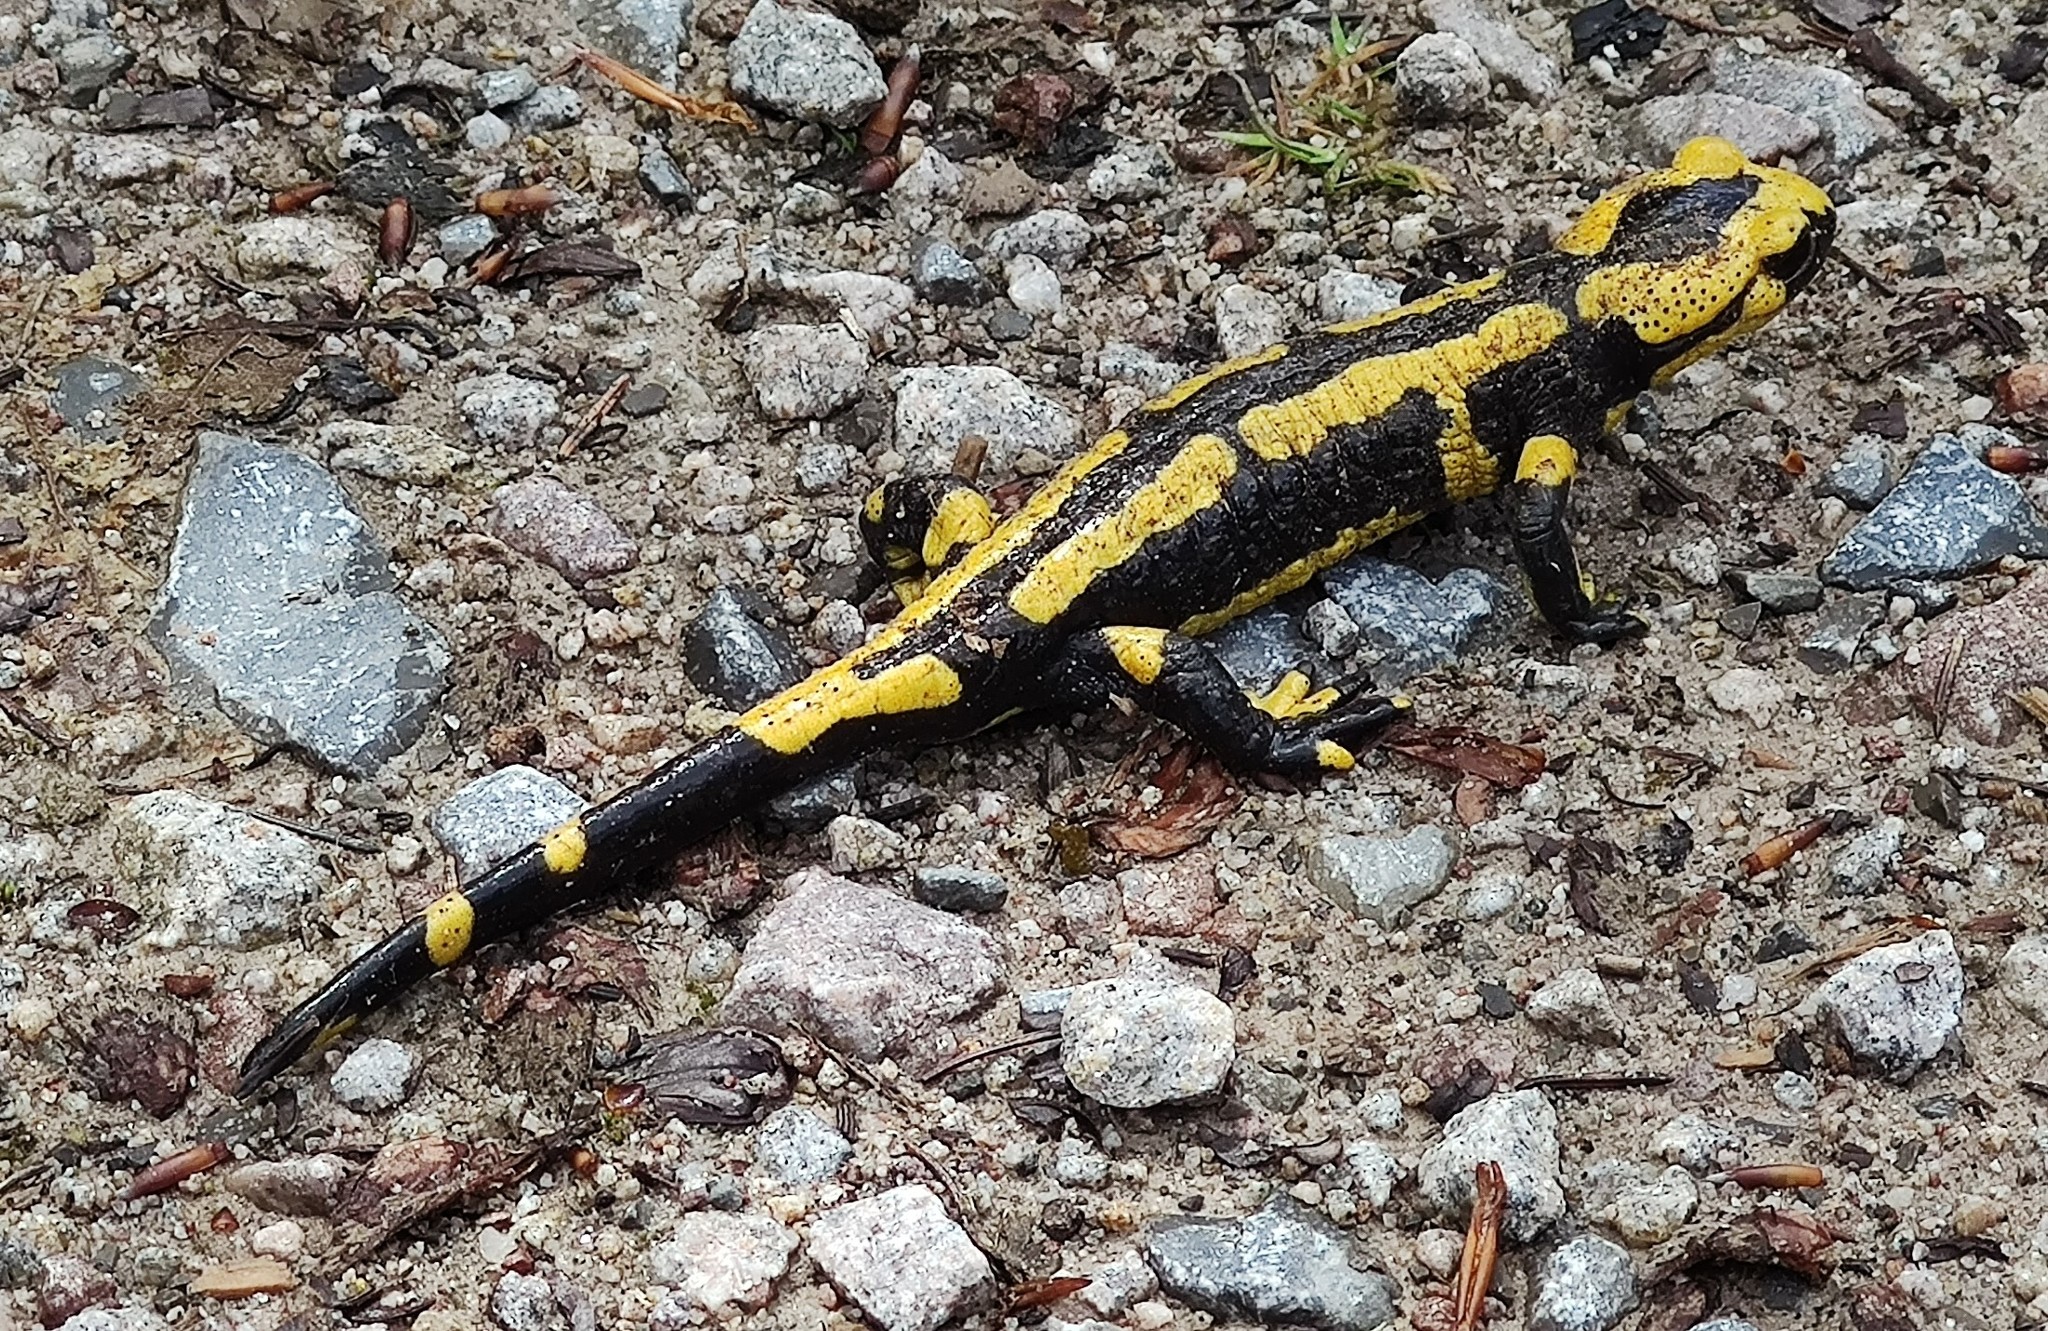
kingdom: Animalia
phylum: Chordata
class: Amphibia
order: Caudata
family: Salamandridae
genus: Salamandra
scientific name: Salamandra salamandra
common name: Fire salamander
